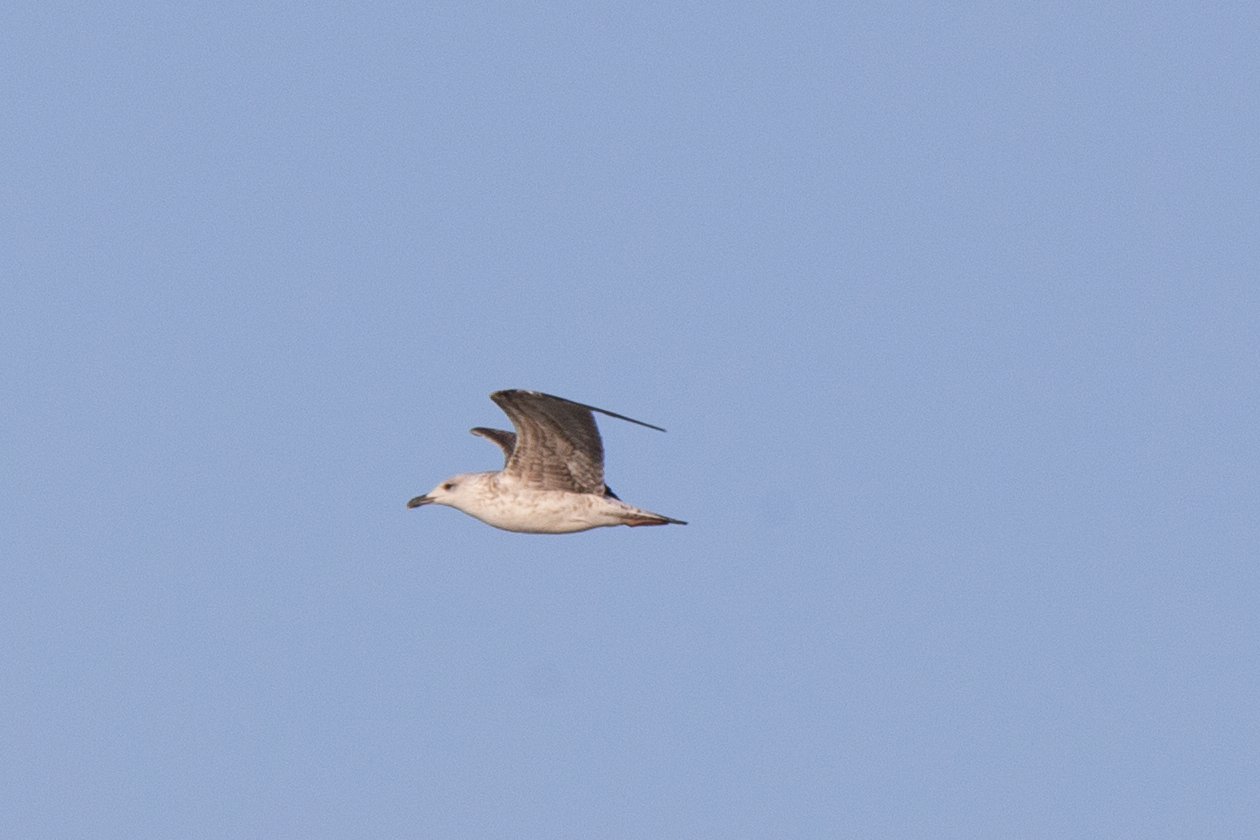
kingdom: Animalia
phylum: Chordata
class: Aves
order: Charadriiformes
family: Laridae
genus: Larus
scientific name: Larus michahellis
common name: Yellow-legged gull
